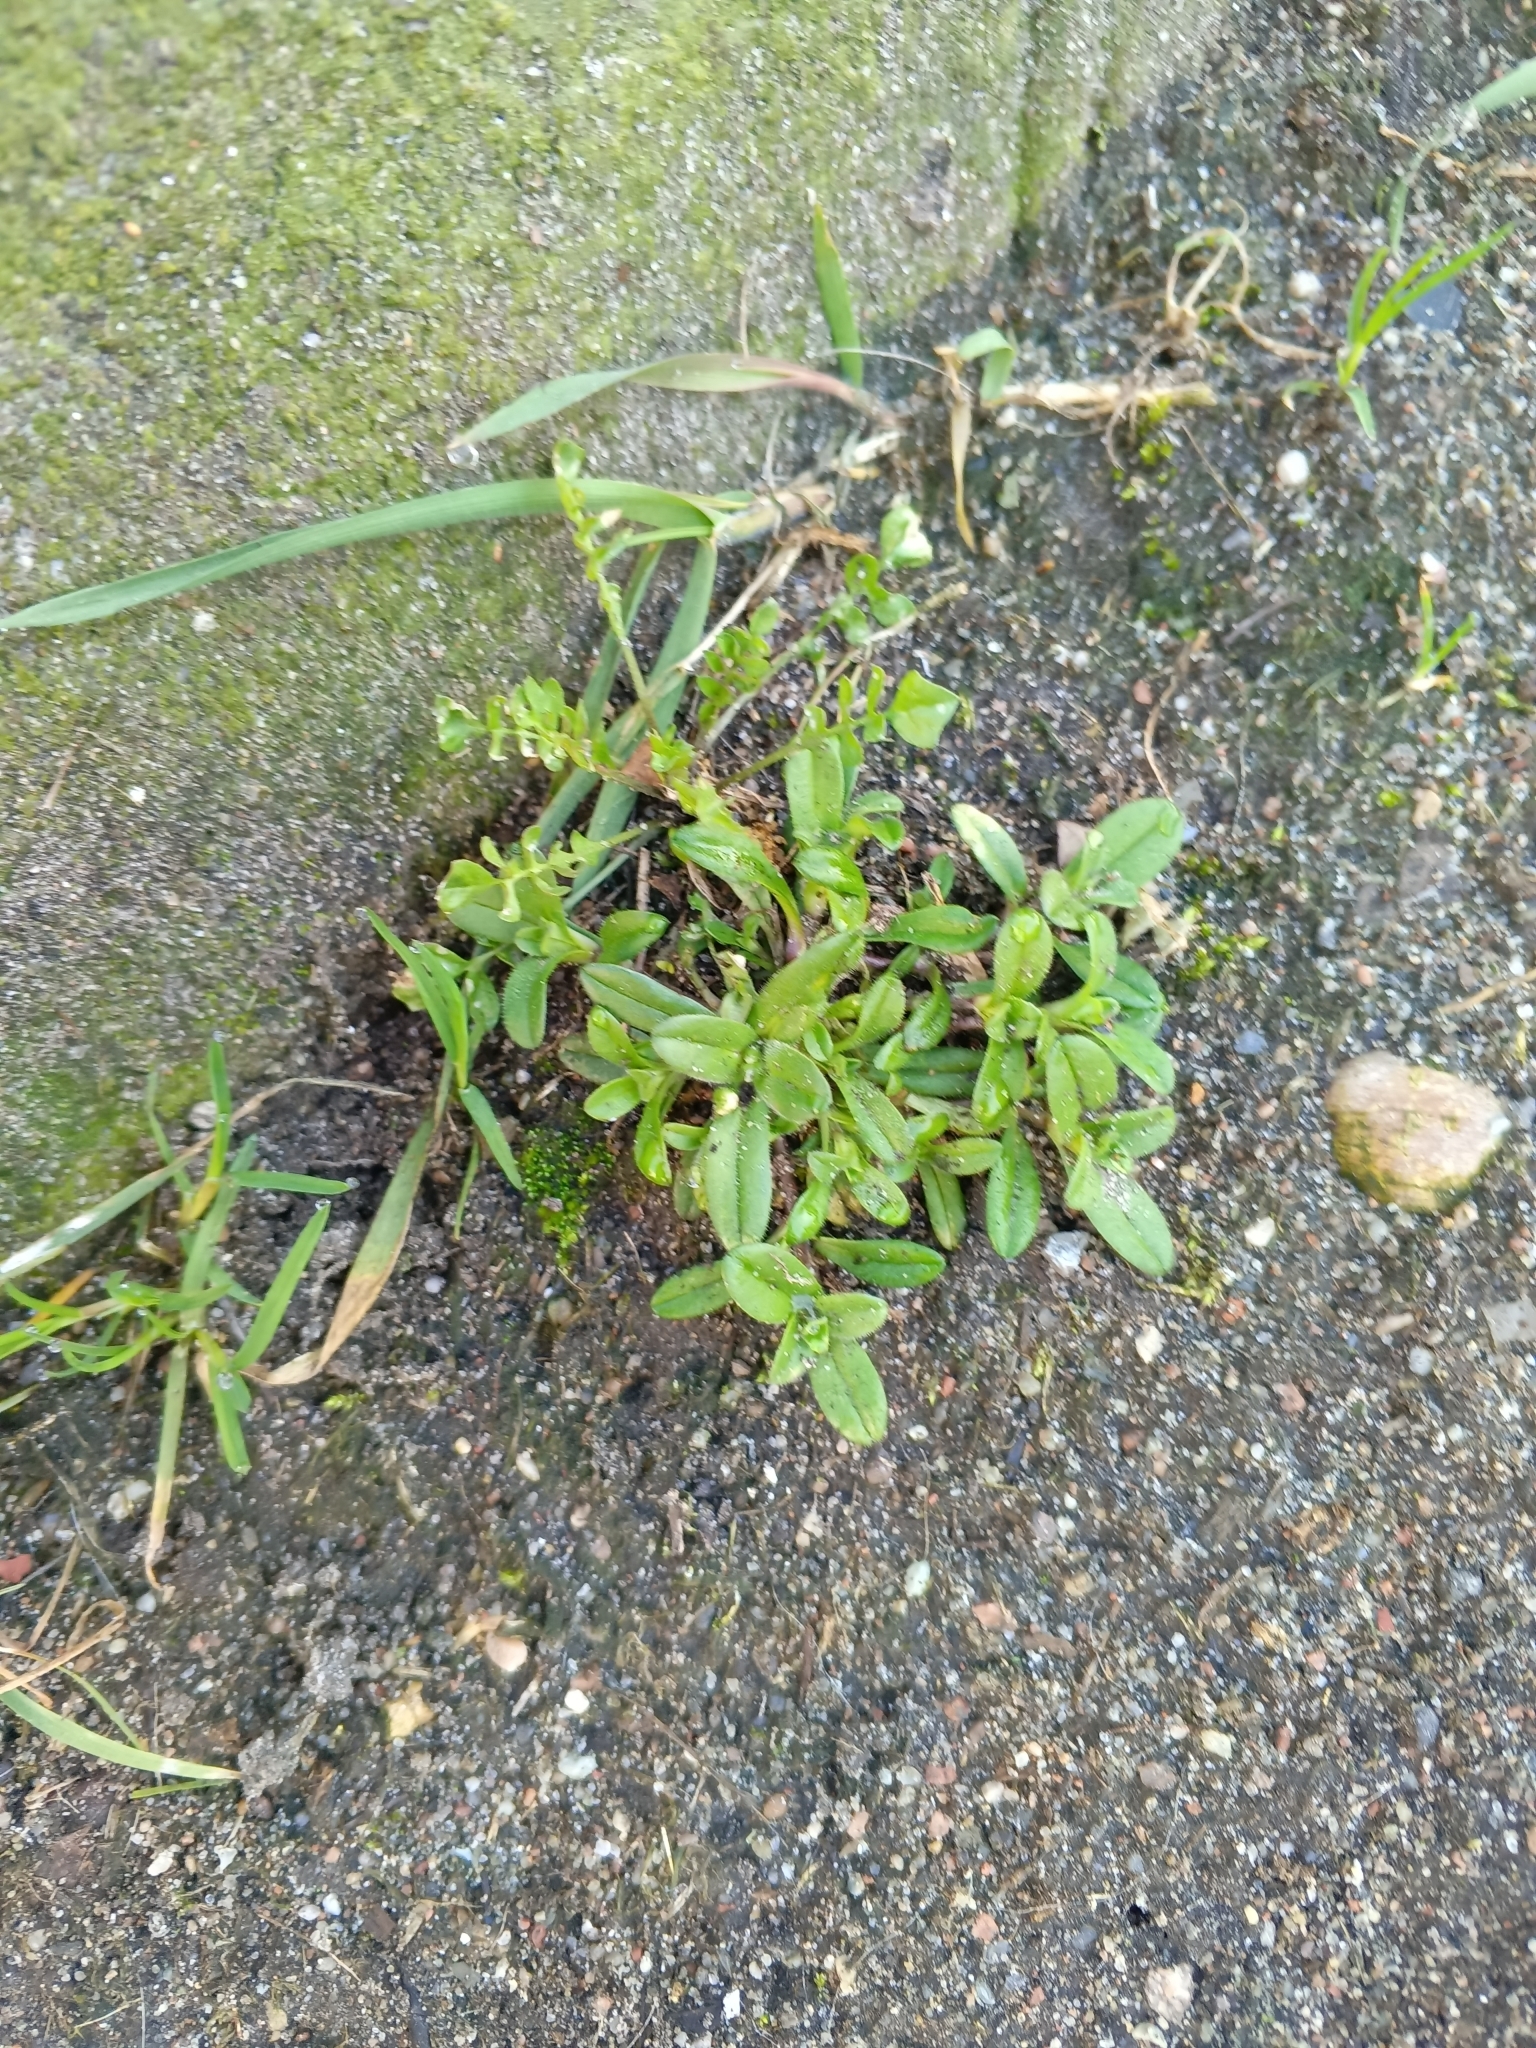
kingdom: Plantae
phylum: Tracheophyta
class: Magnoliopsida
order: Caryophyllales
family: Caryophyllaceae
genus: Cerastium
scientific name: Cerastium holosteoides
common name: Big chickweed
